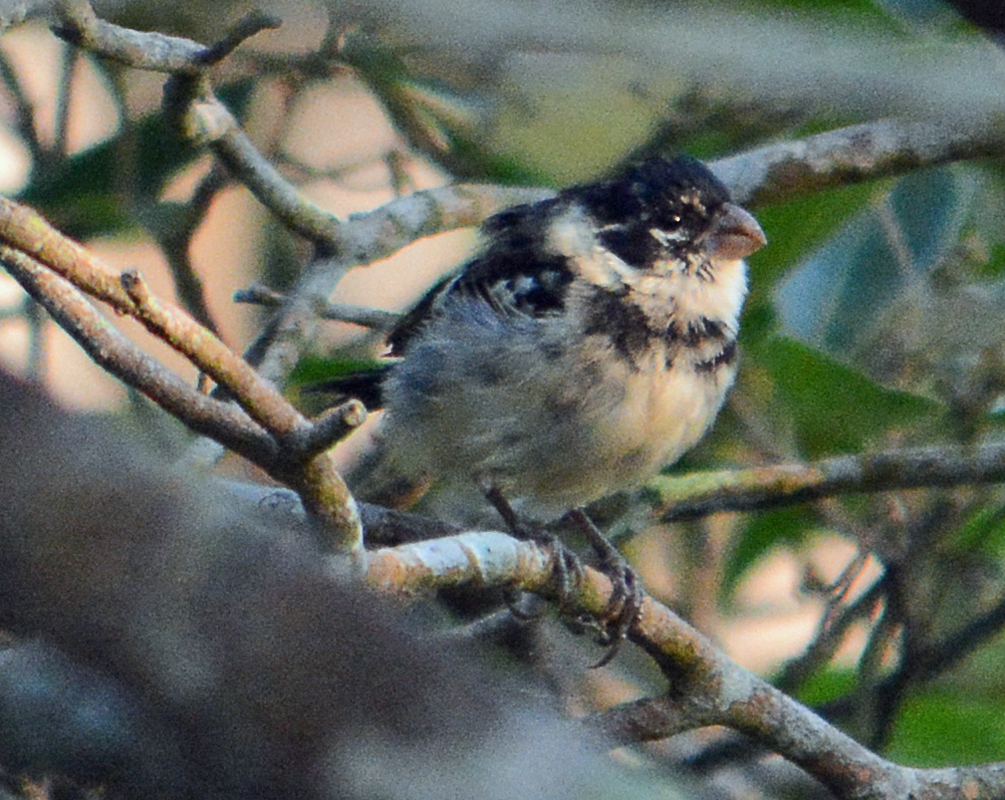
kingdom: Animalia
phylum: Chordata
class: Aves
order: Passeriformes
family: Thraupidae
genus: Sporophila
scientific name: Sporophila morelleti
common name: Morelet's seedeater
